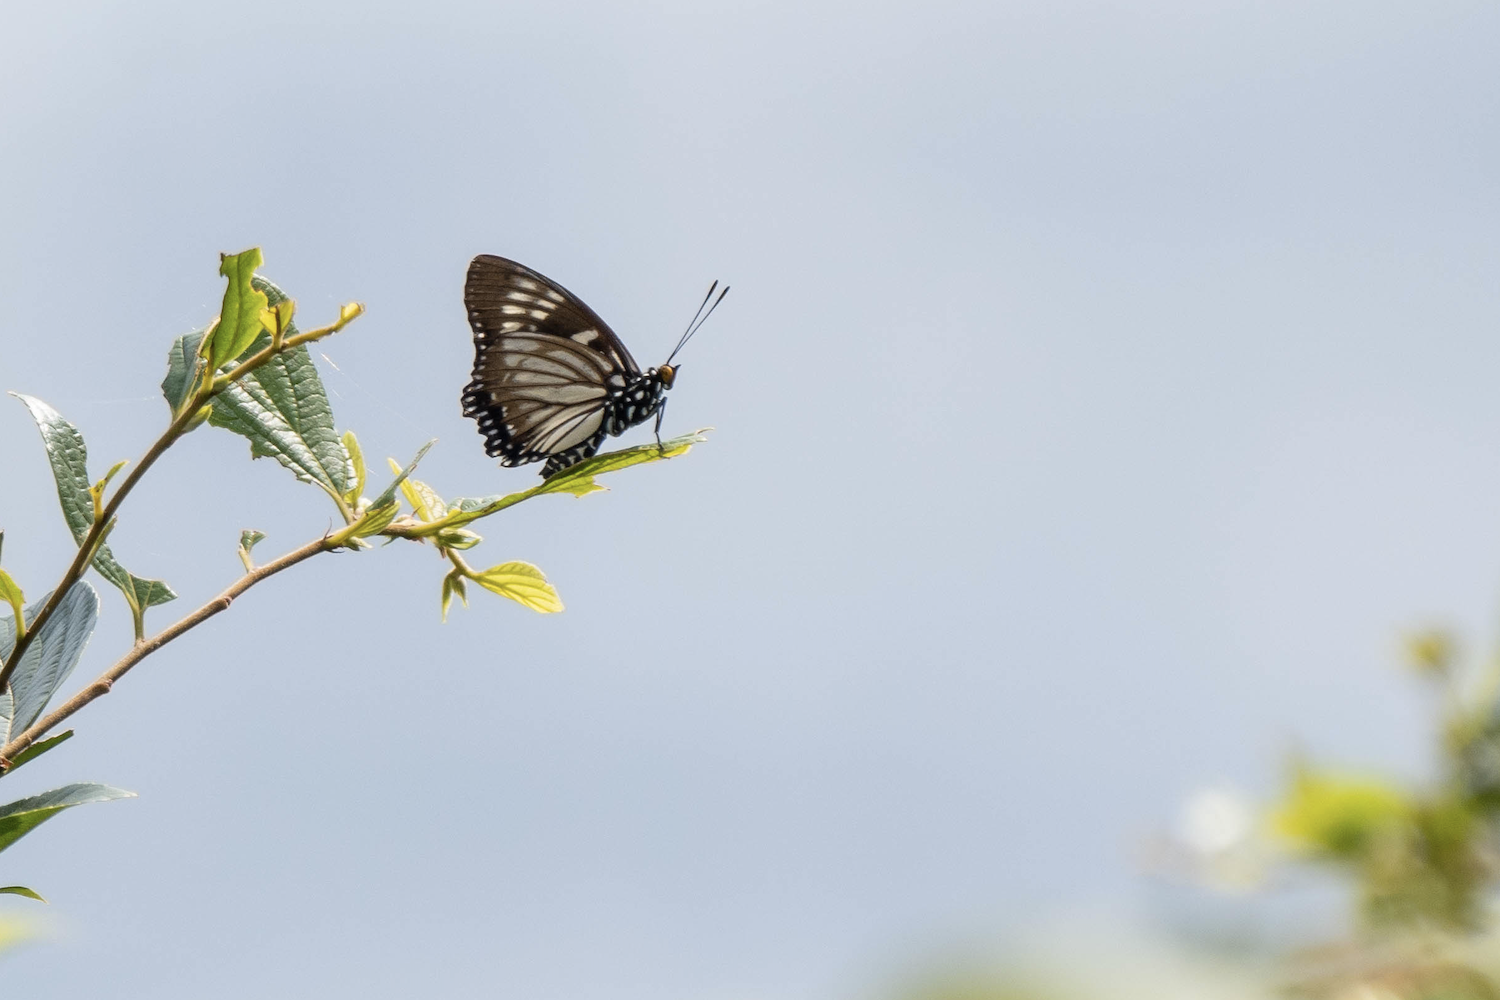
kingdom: Animalia
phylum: Arthropoda
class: Insecta
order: Lepidoptera
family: Nymphalidae
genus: Euripus
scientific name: Euripus nyctelius
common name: Courtesan
